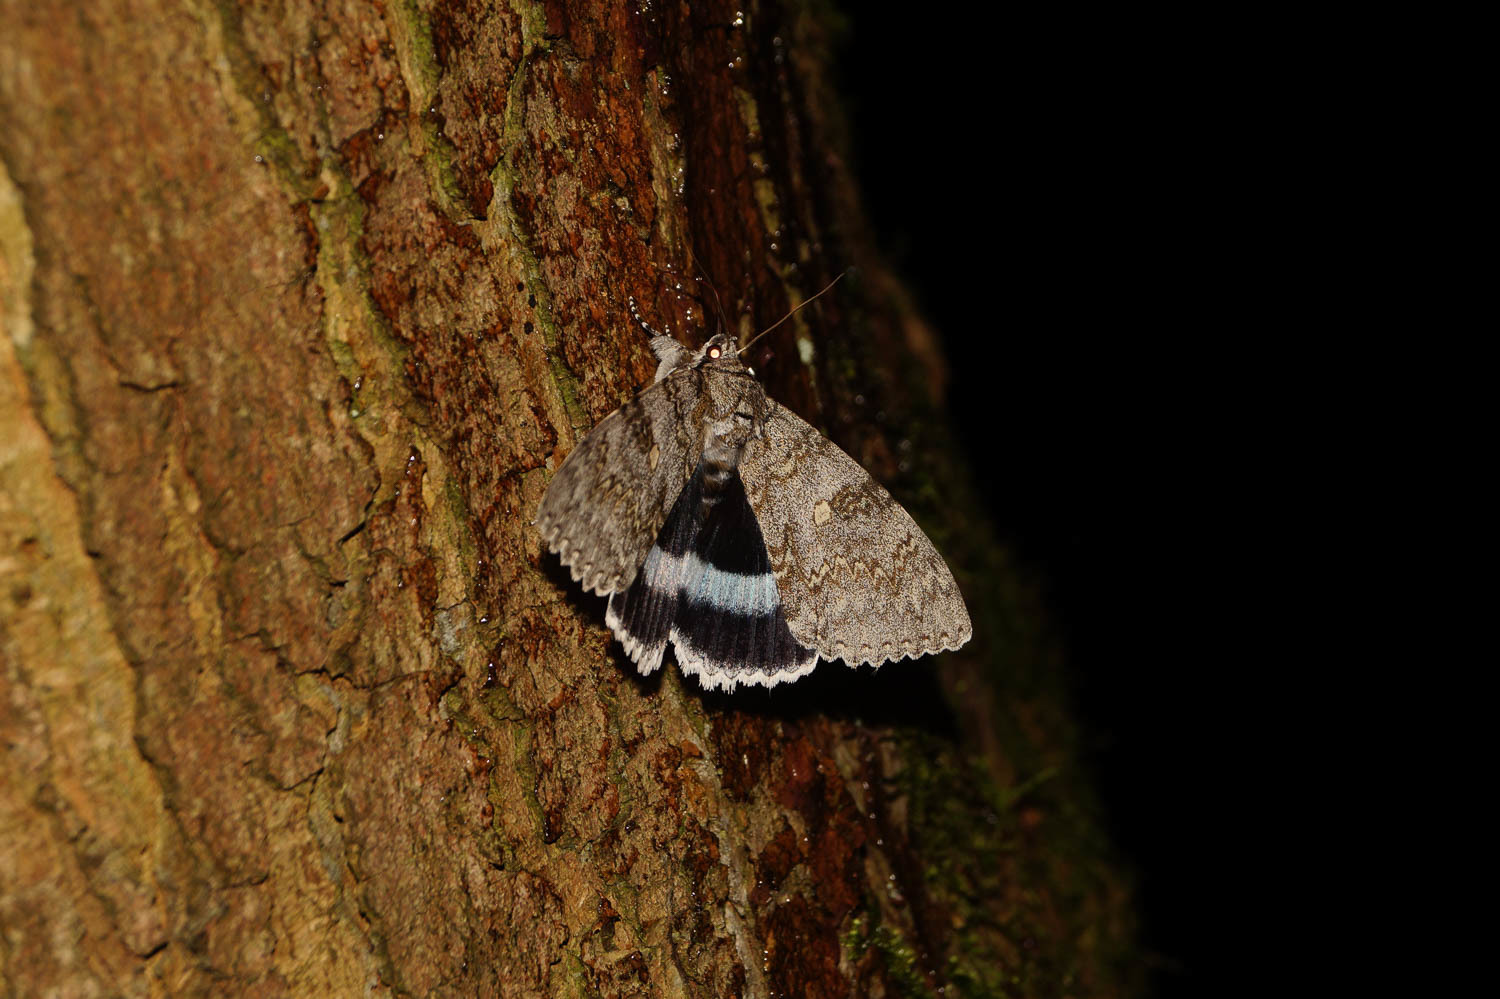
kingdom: Animalia
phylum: Arthropoda
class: Insecta
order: Lepidoptera
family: Erebidae
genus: Catocala
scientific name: Catocala fraxini
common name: Clifden nonpareil
